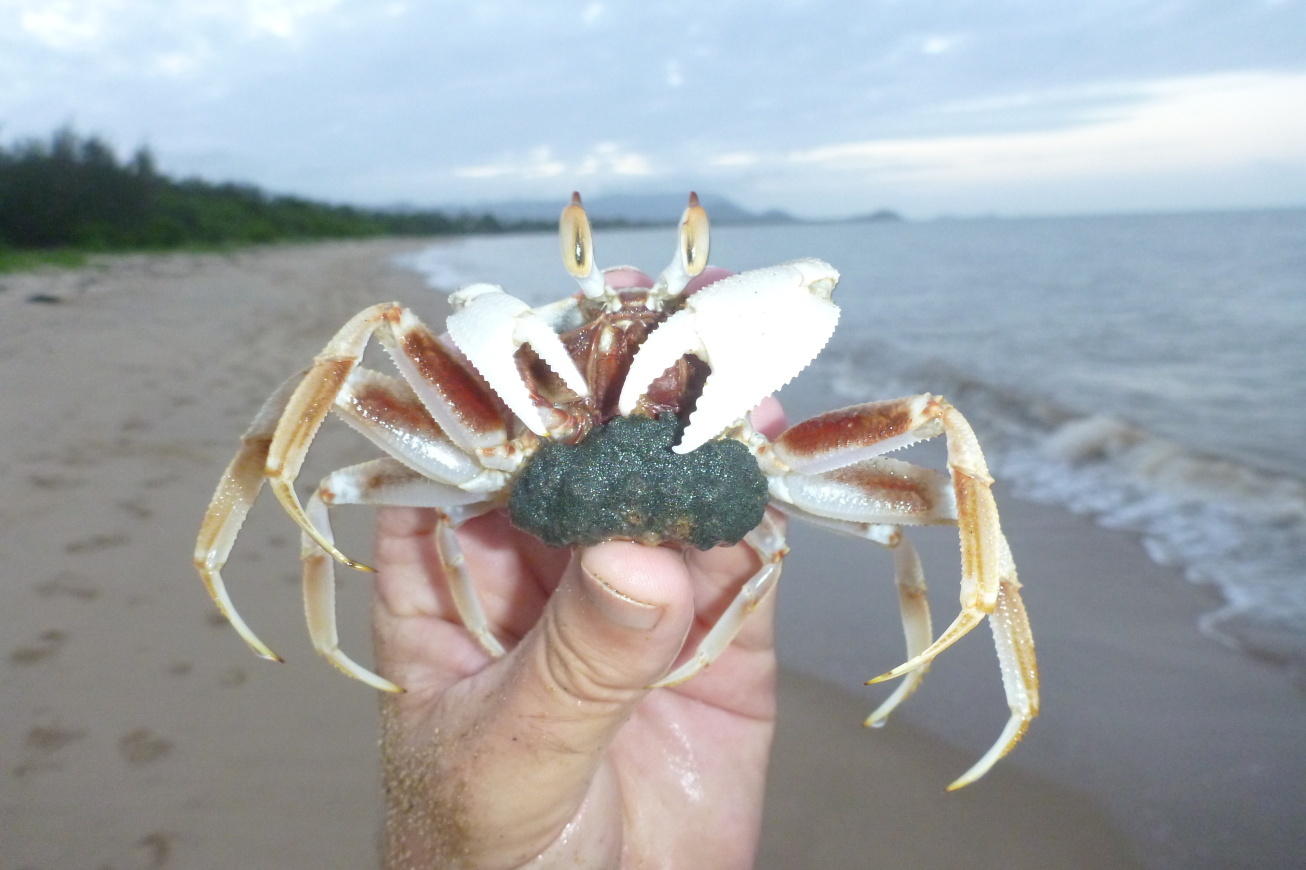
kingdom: Animalia
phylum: Arthropoda
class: Malacostraca
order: Decapoda
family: Ocypodidae
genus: Ocypode
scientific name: Ocypode ceratophthalmus
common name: Indo-pacific ghost crab
